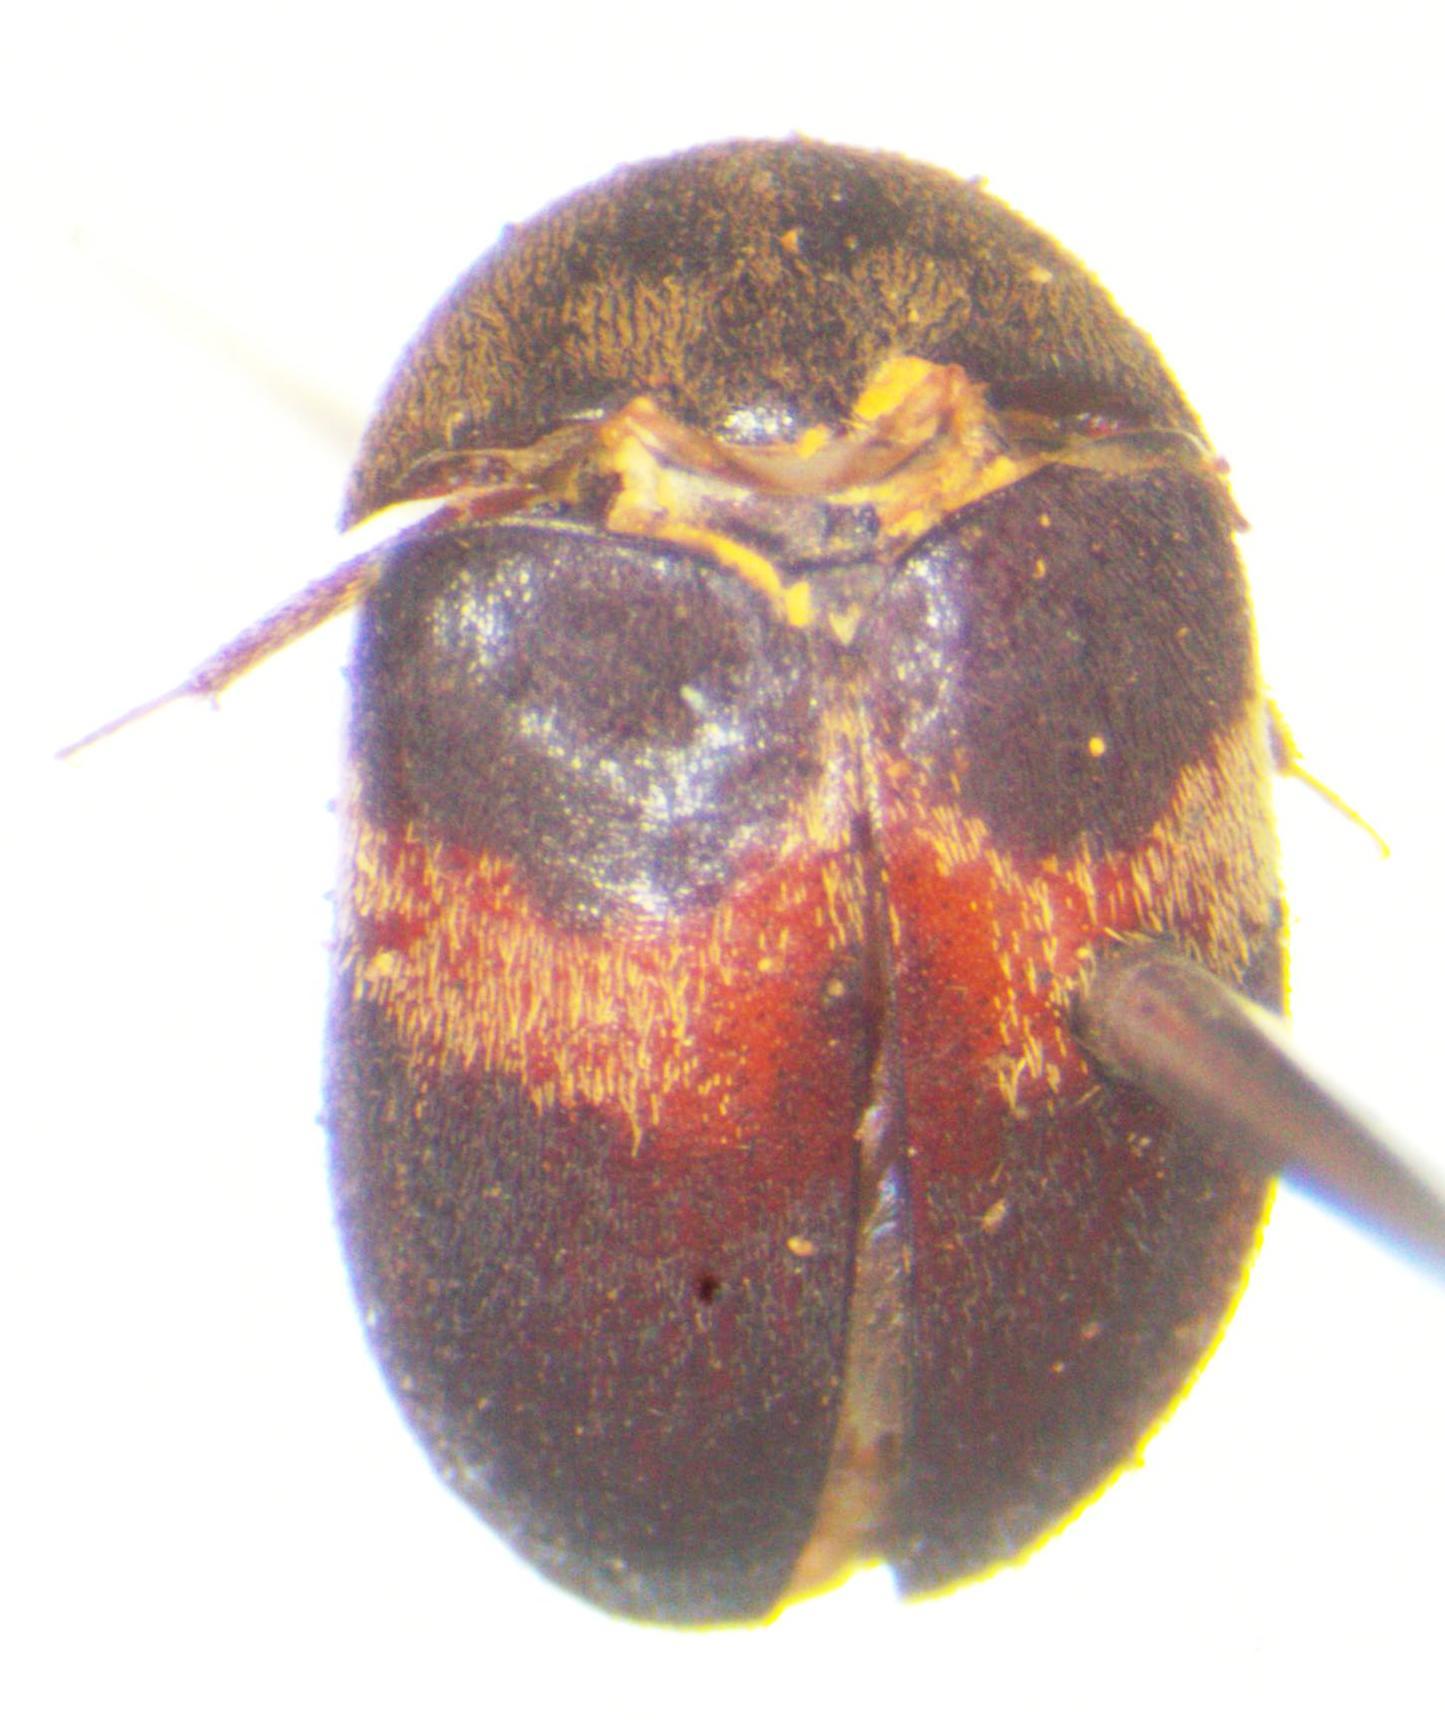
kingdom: Animalia
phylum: Arthropoda
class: Insecta
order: Coleoptera
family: Dermestidae
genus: Attagenus
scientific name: Attagenus fasciatus
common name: Wardrobe beetle
